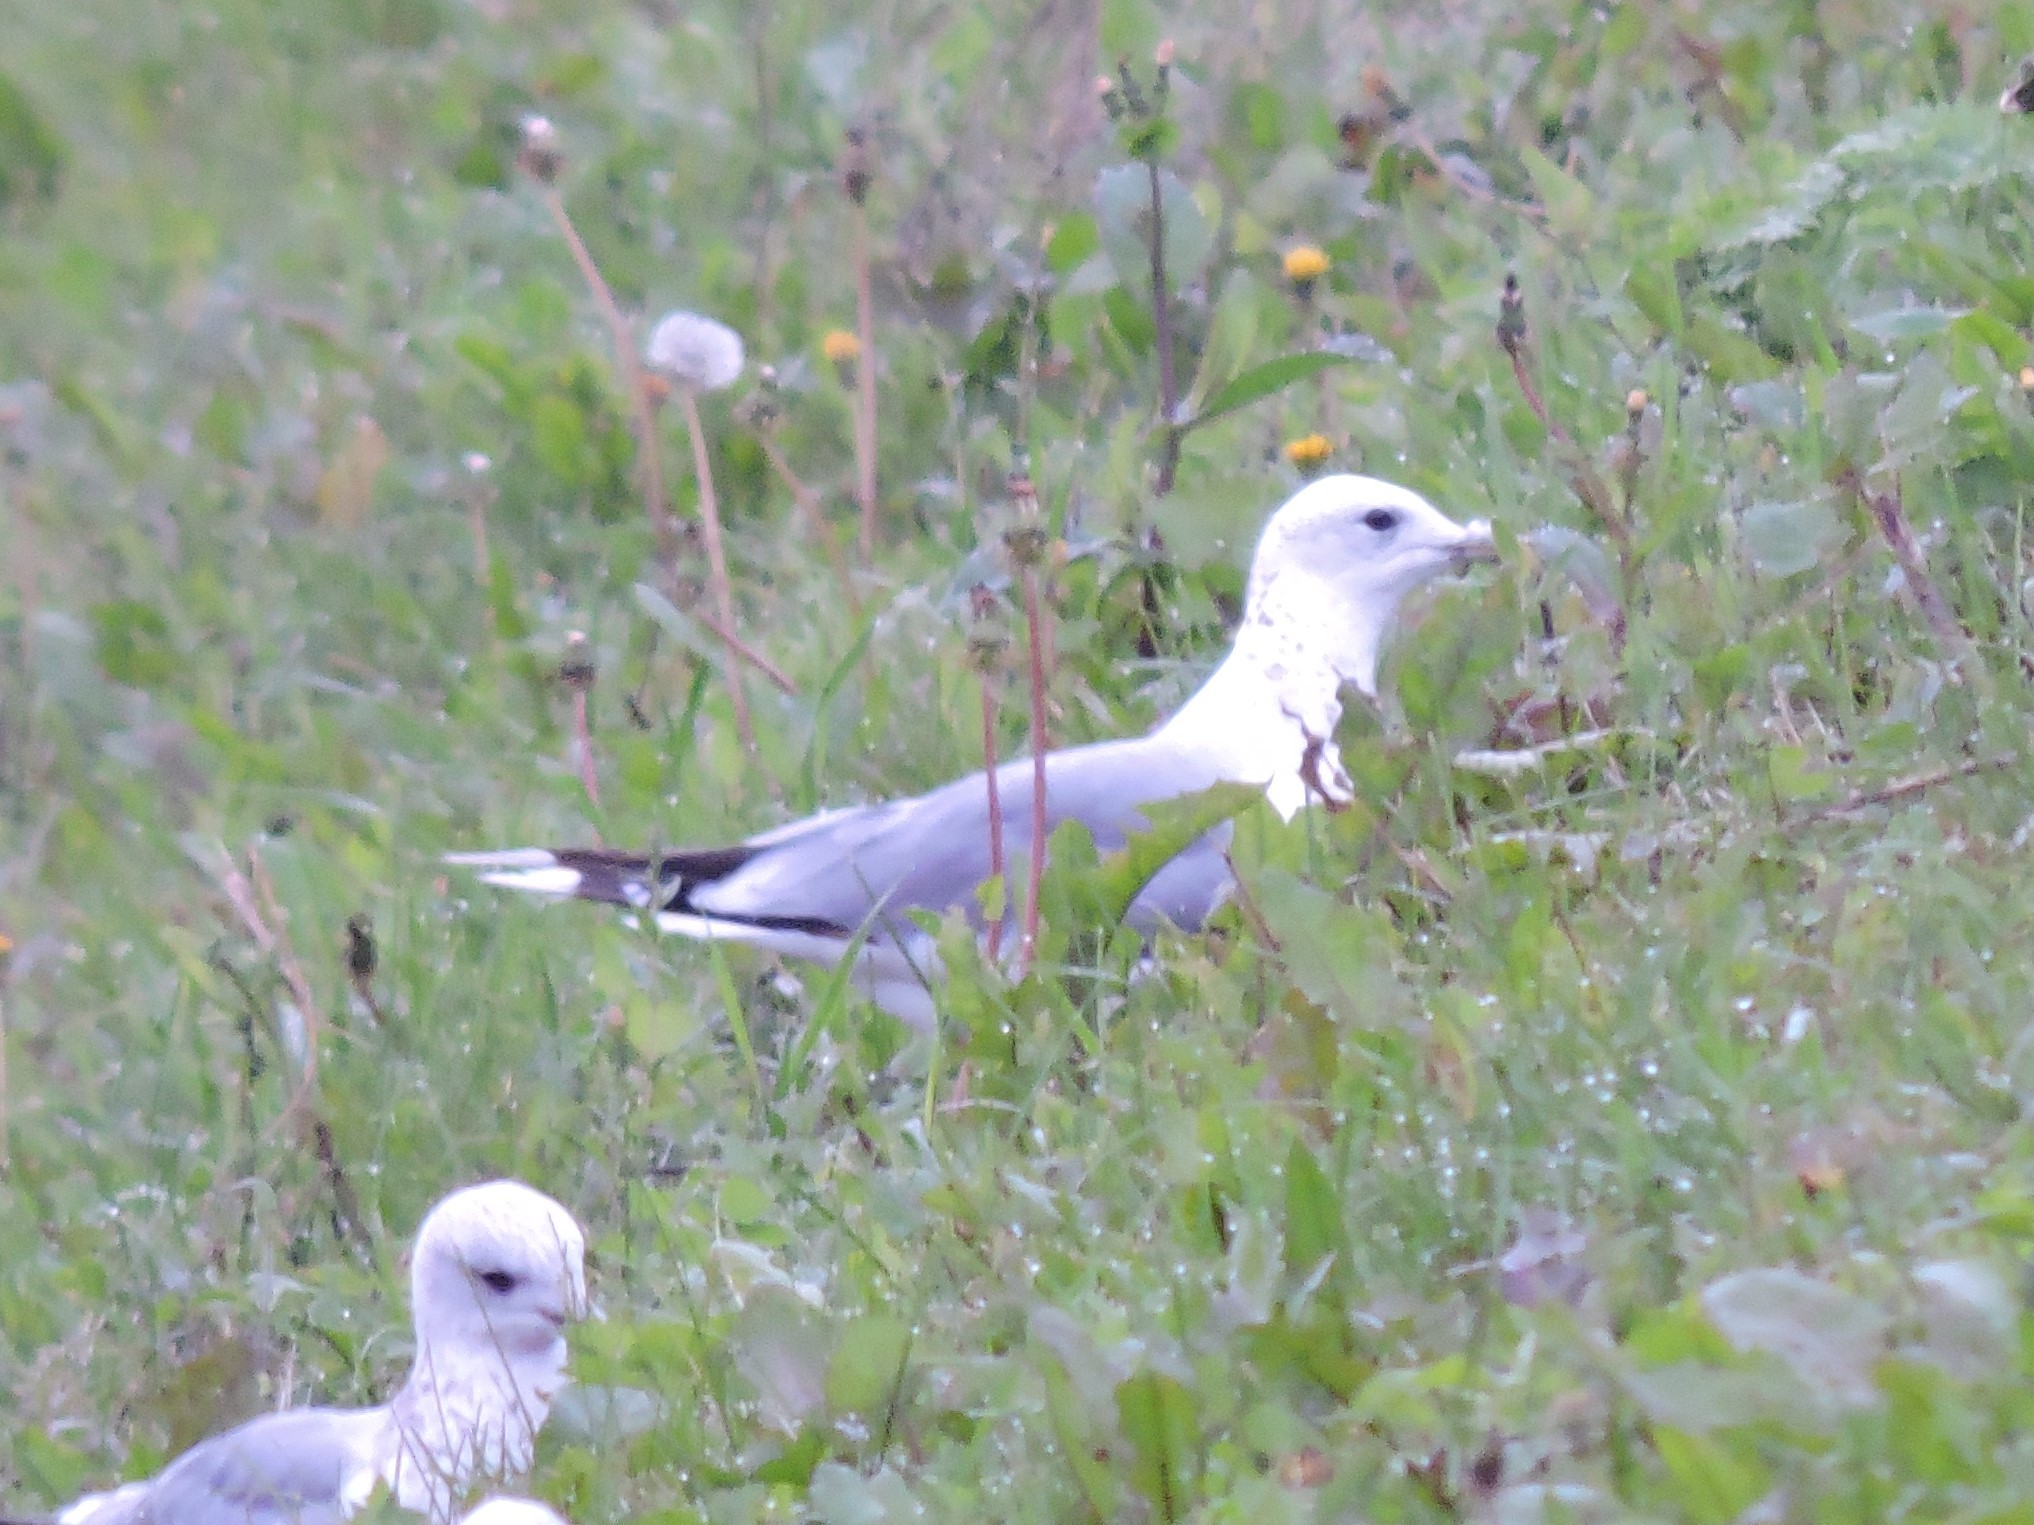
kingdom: Animalia
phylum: Chordata
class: Aves
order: Charadriiformes
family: Laridae
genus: Larus
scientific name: Larus canus
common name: Mew gull
